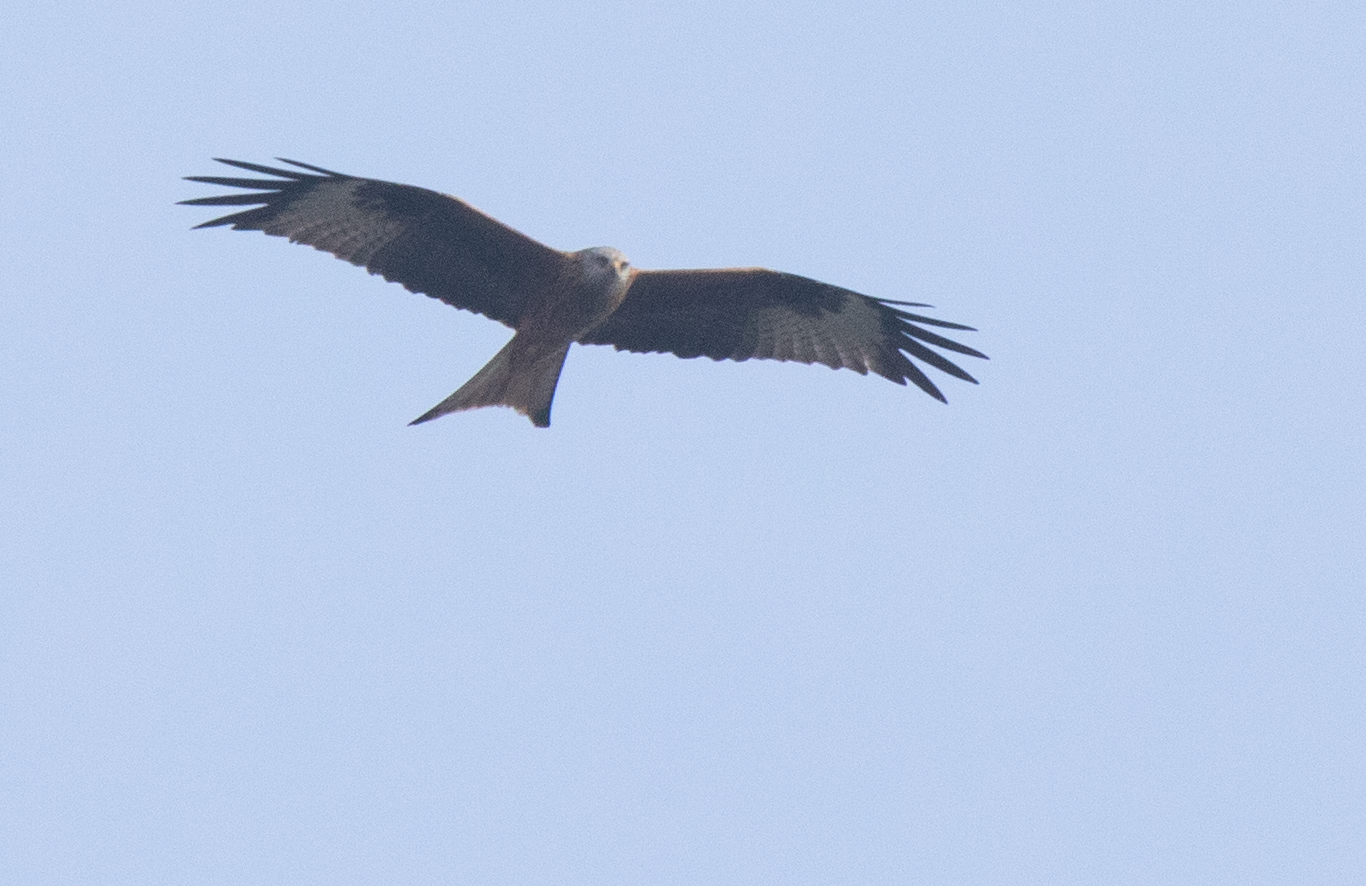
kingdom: Animalia
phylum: Chordata
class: Aves
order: Accipitriformes
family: Accipitridae
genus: Milvus
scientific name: Milvus milvus
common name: Red kite
